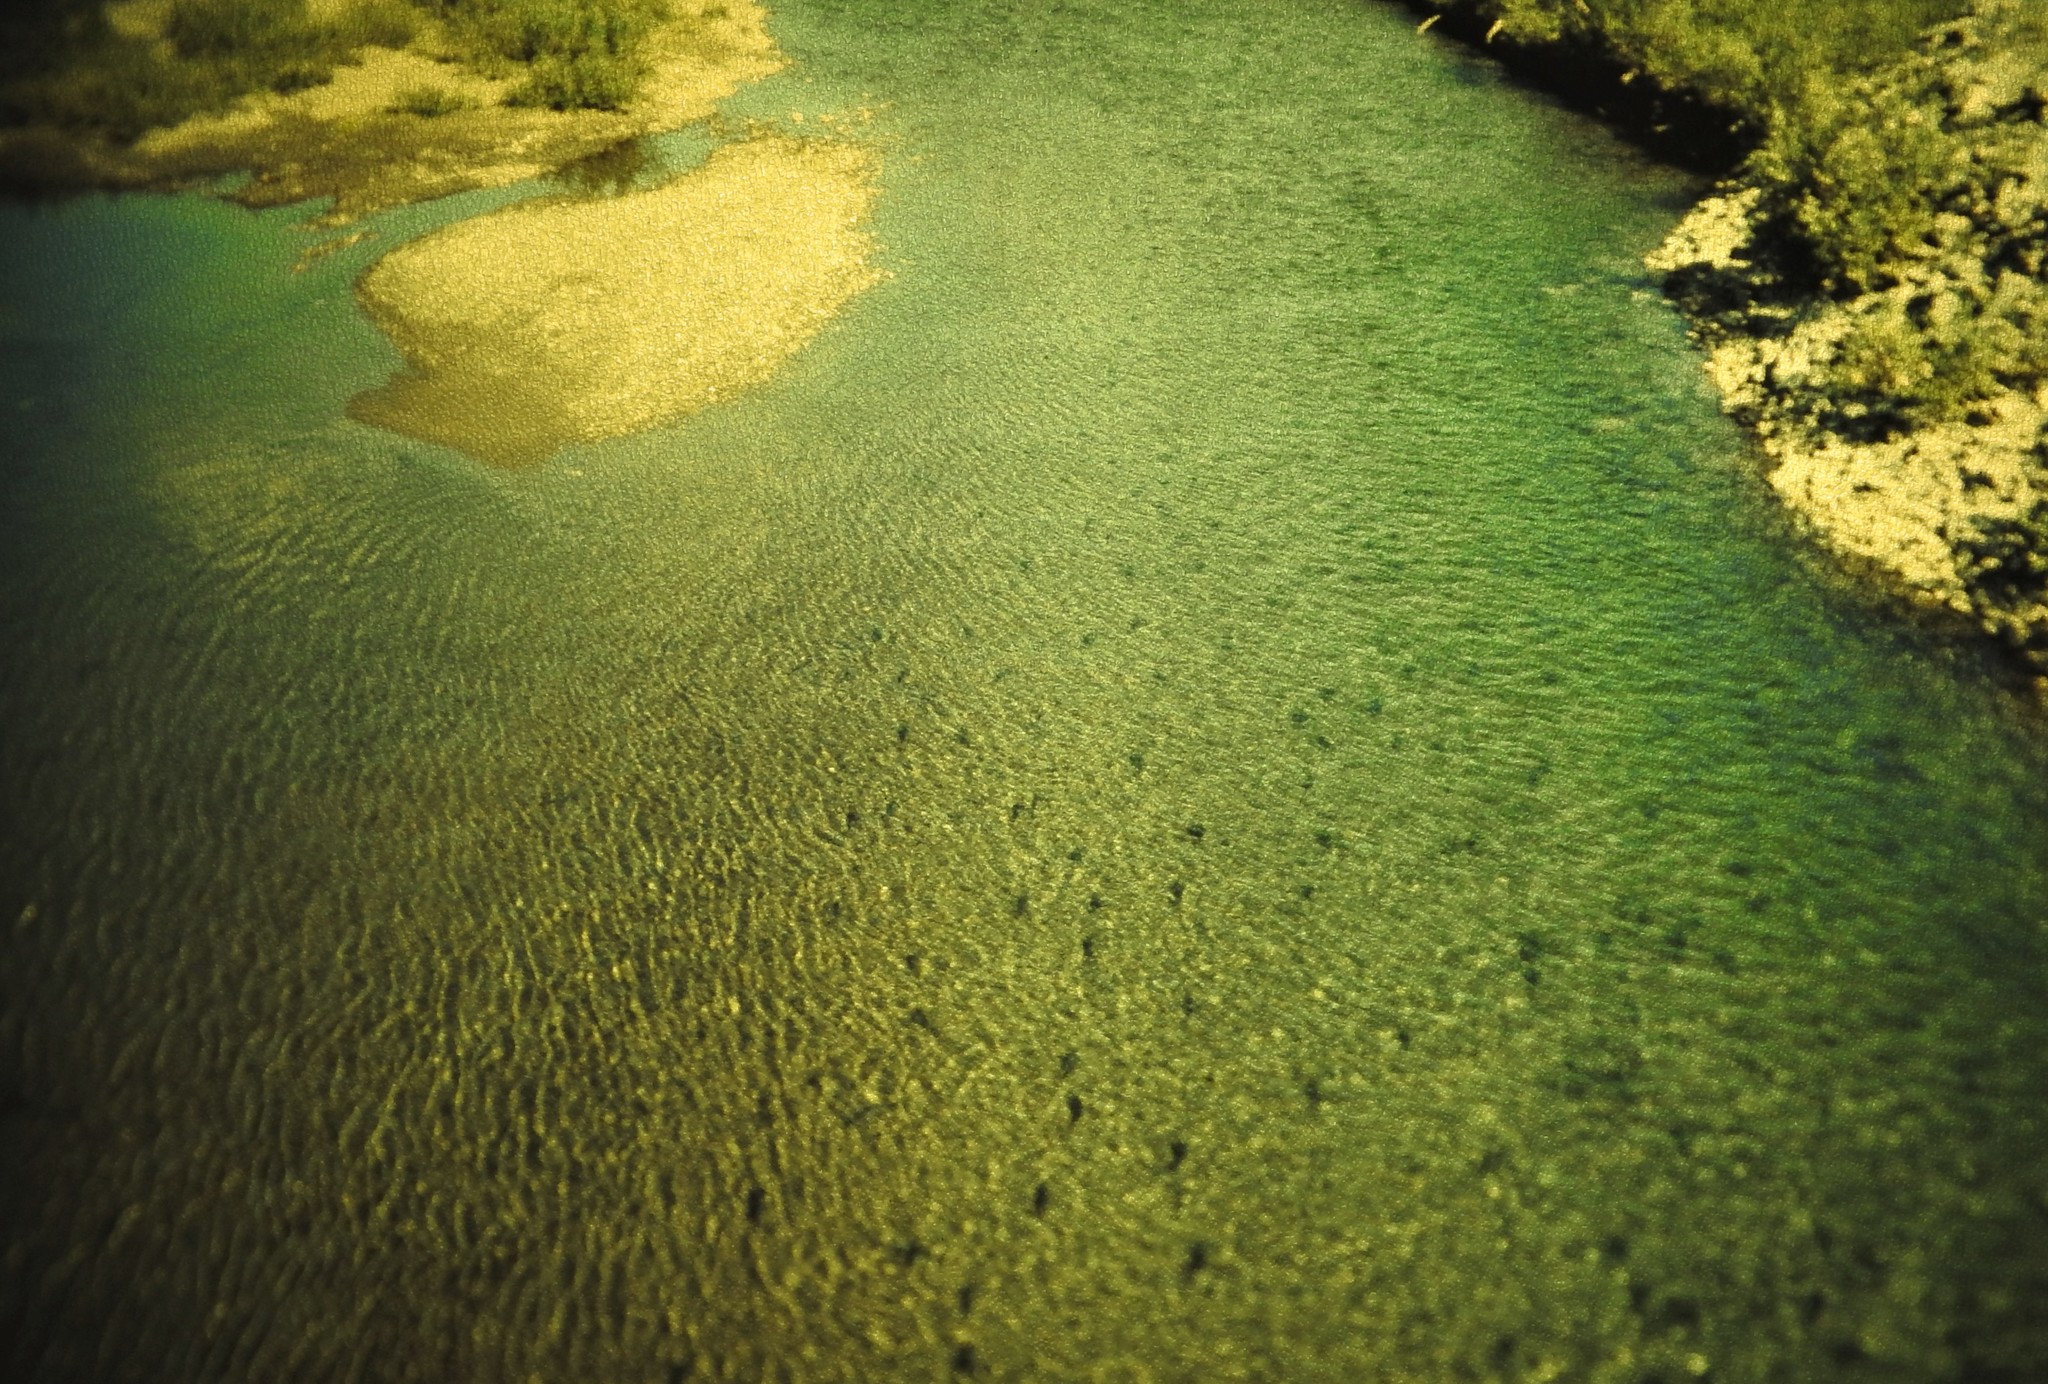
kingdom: Animalia
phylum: Chordata
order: Salmoniformes
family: Salmonidae
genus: Oncorhynchus
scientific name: Oncorhynchus gorbuscha
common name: Humpback salmon
